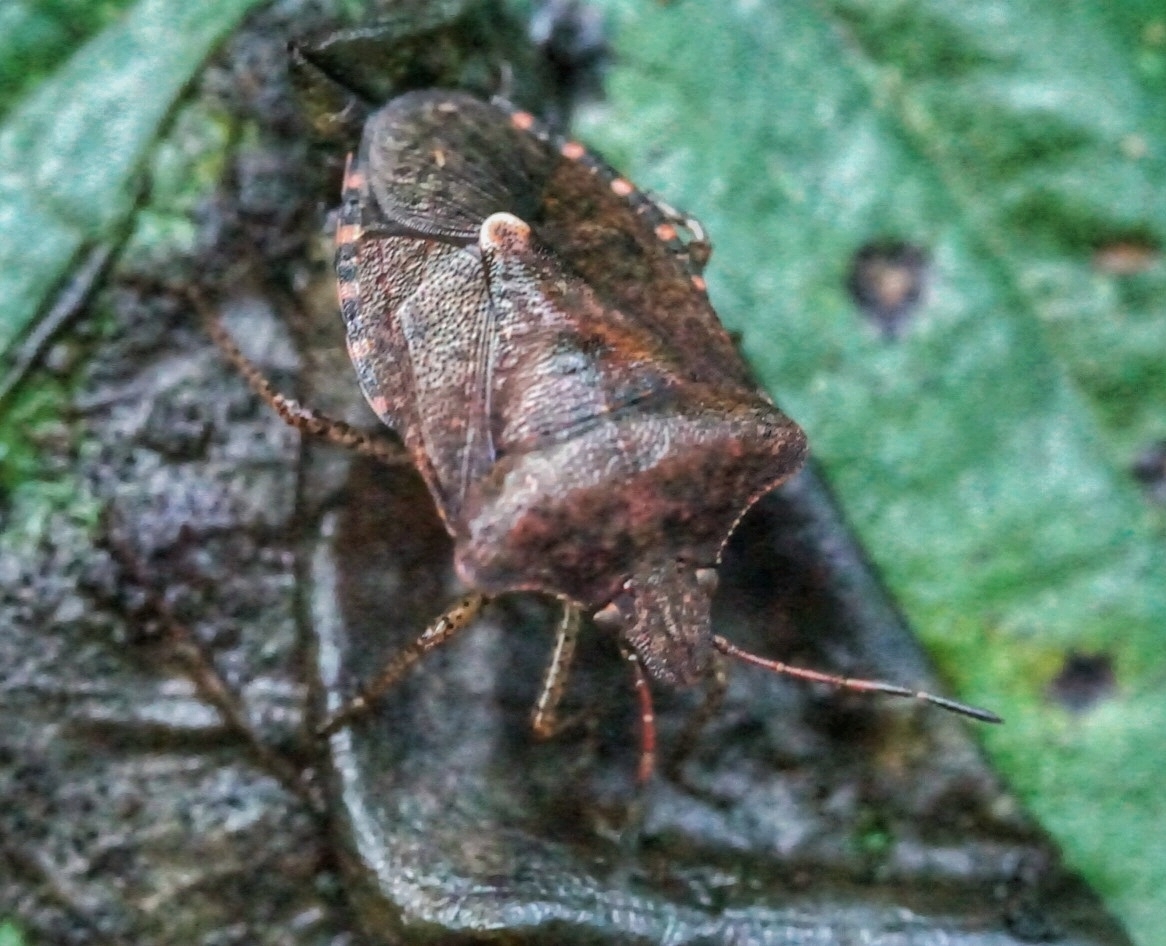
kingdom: Animalia
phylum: Arthropoda
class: Insecta
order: Hemiptera
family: Pentatomidae
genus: Euschistus
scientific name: Euschistus tristigmus
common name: Dusky stink bug
